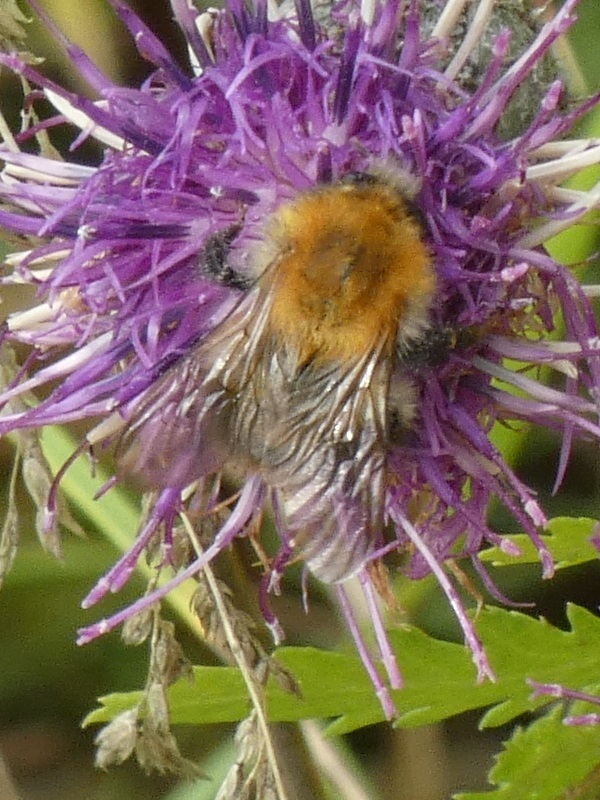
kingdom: Animalia
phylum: Arthropoda
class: Insecta
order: Hymenoptera
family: Apidae
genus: Bombus
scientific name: Bombus pascuorum
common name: Common carder bee
